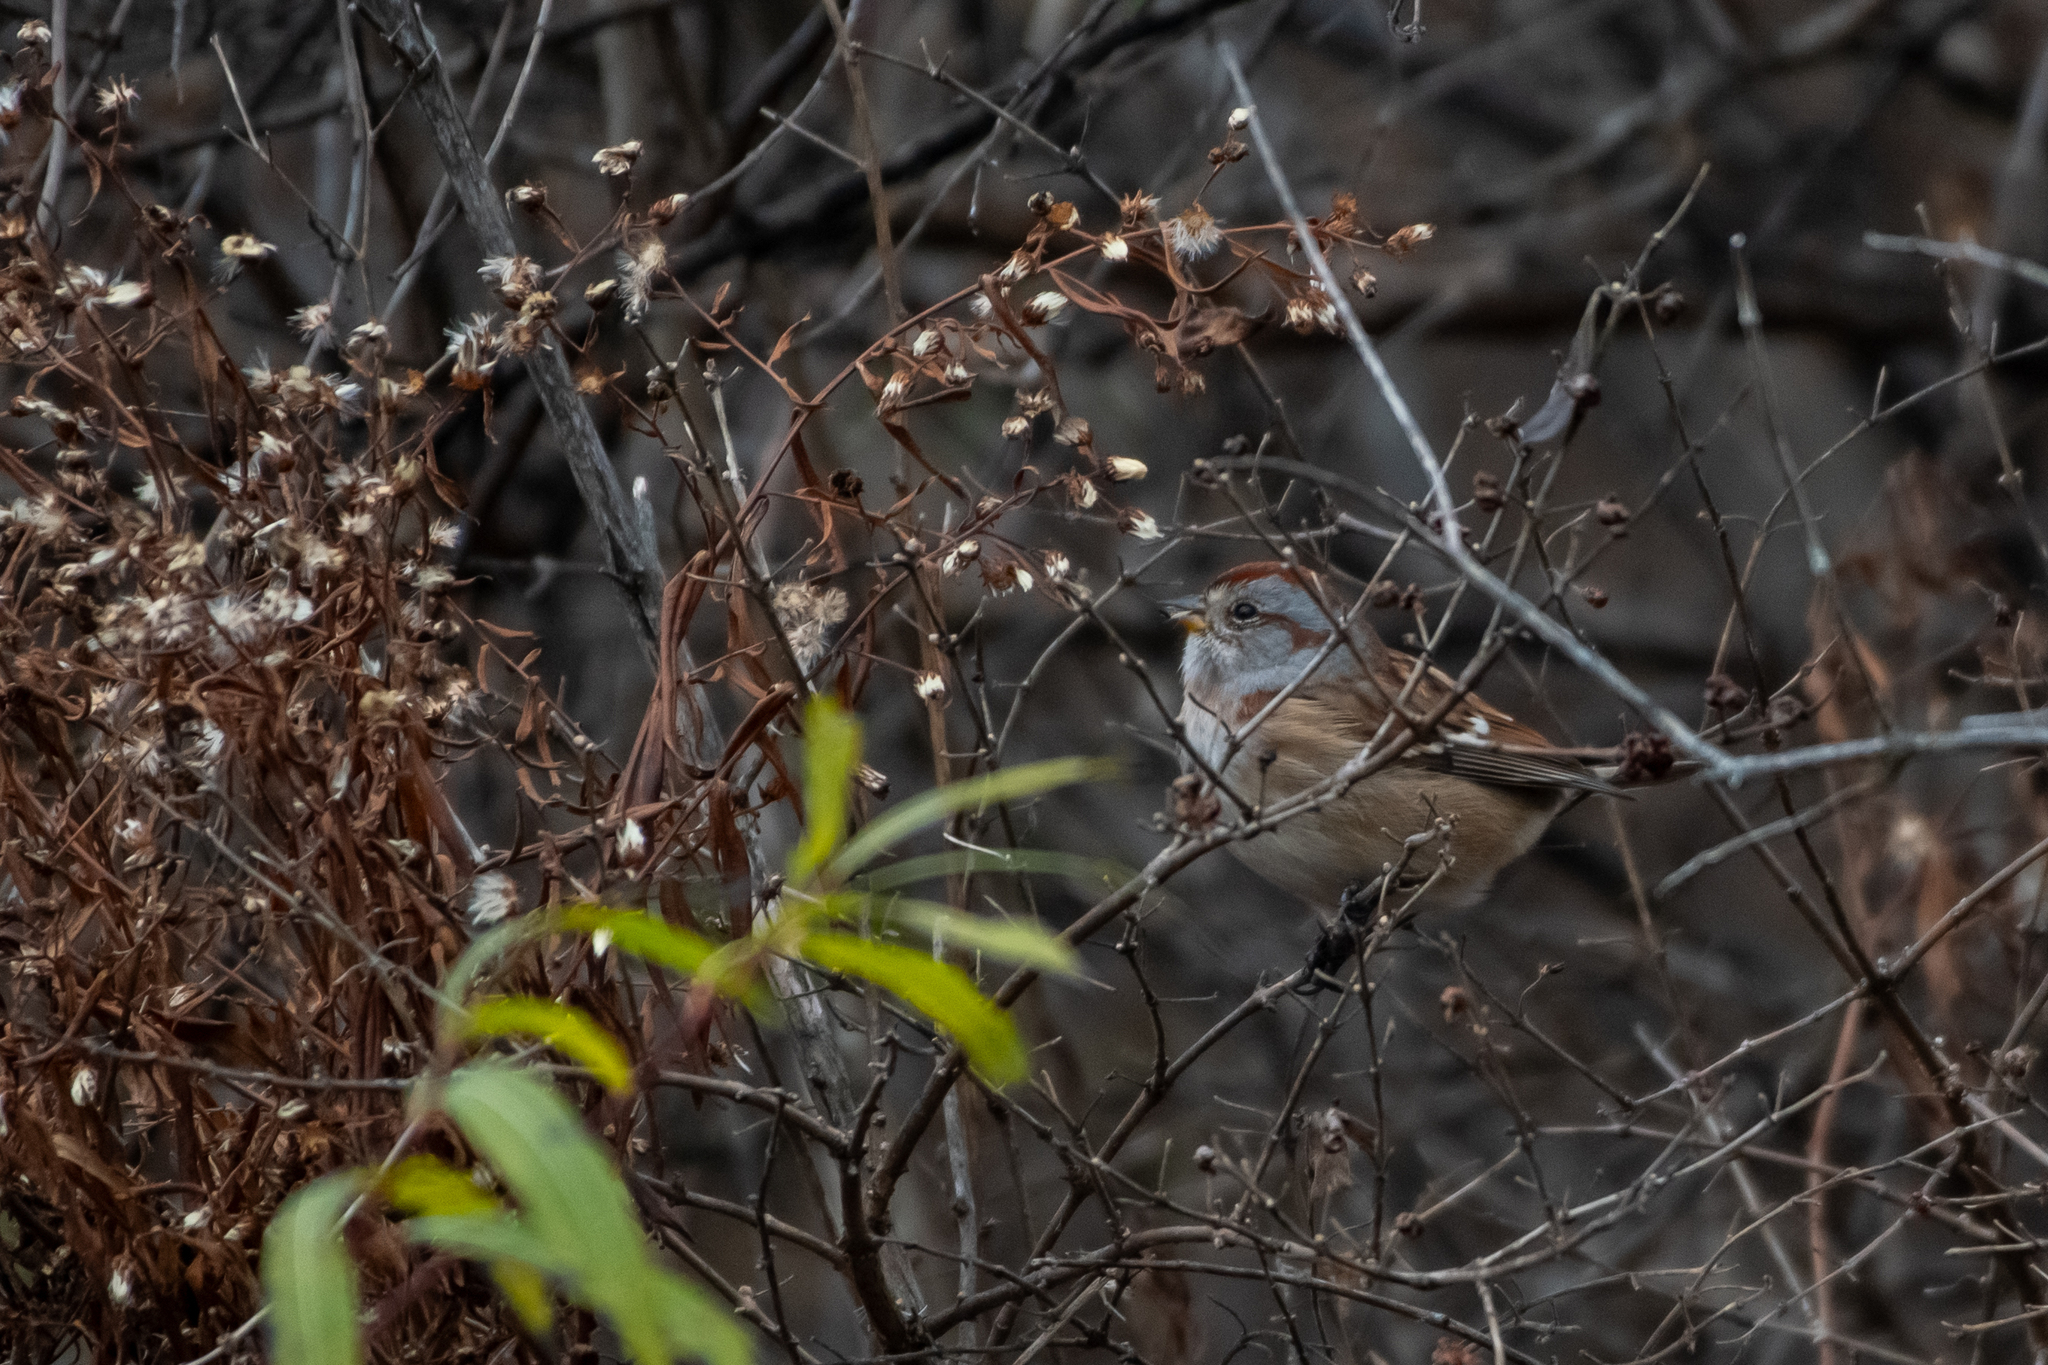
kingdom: Animalia
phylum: Chordata
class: Aves
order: Passeriformes
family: Passerellidae
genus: Spizelloides
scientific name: Spizelloides arborea
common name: American tree sparrow
